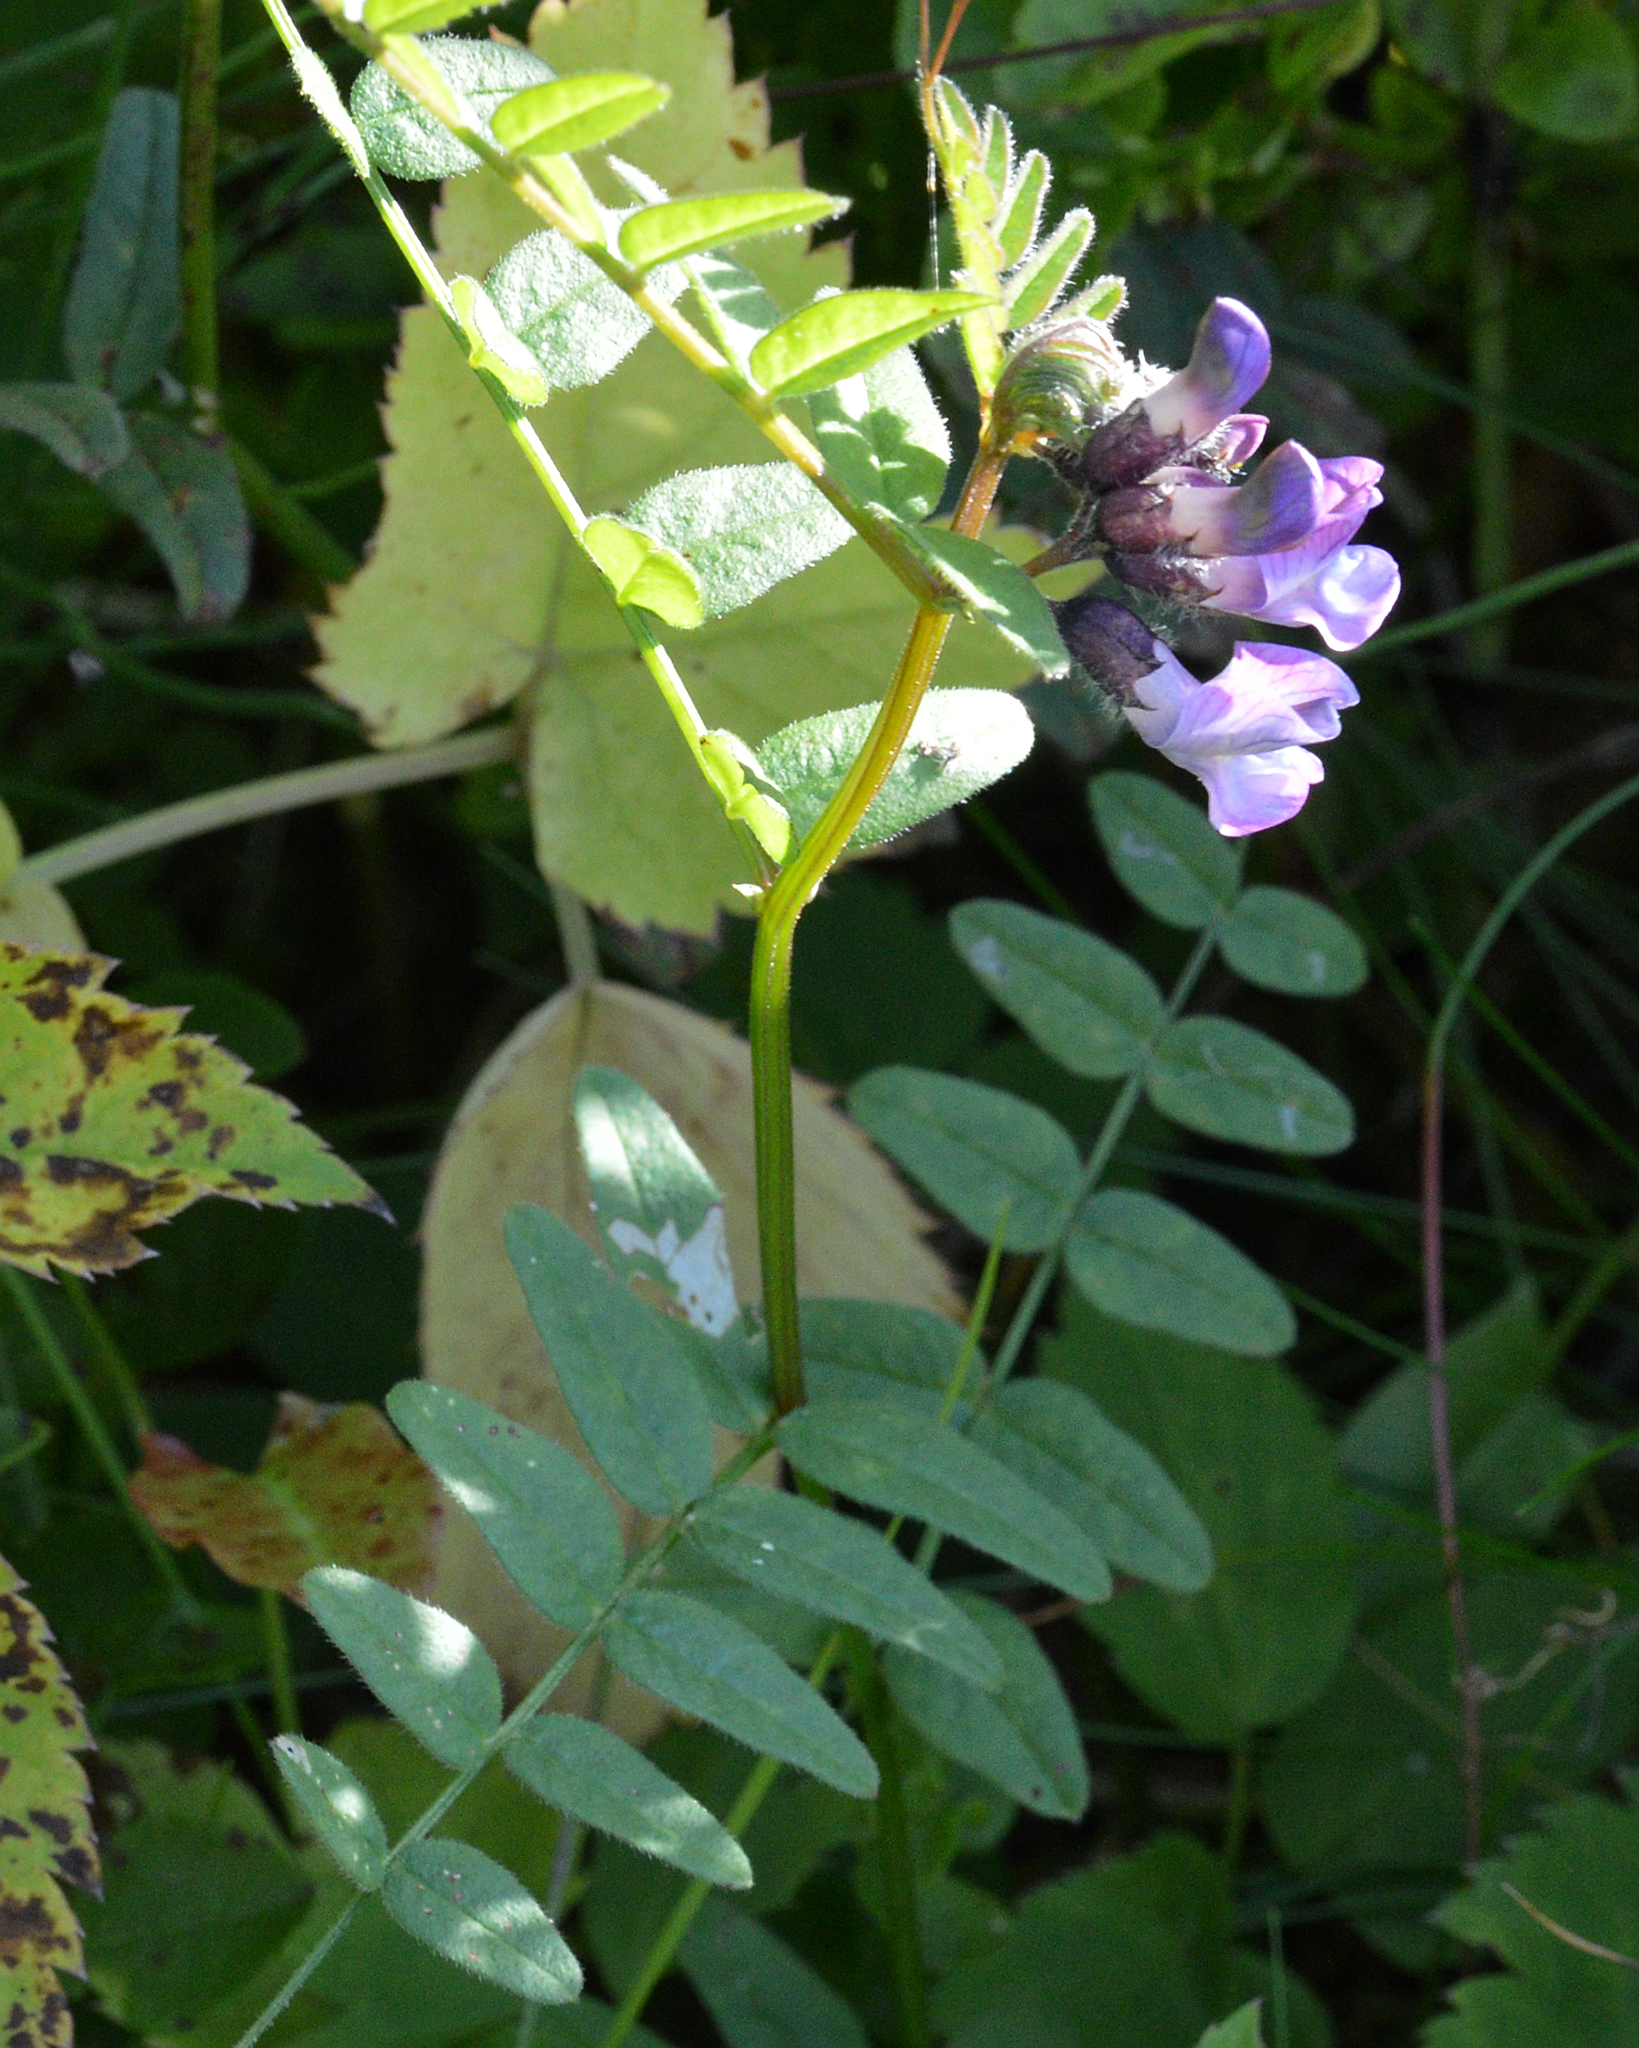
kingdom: Plantae
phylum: Tracheophyta
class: Magnoliopsida
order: Fabales
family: Fabaceae
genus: Vicia
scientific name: Vicia sepium
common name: Bush vetch
